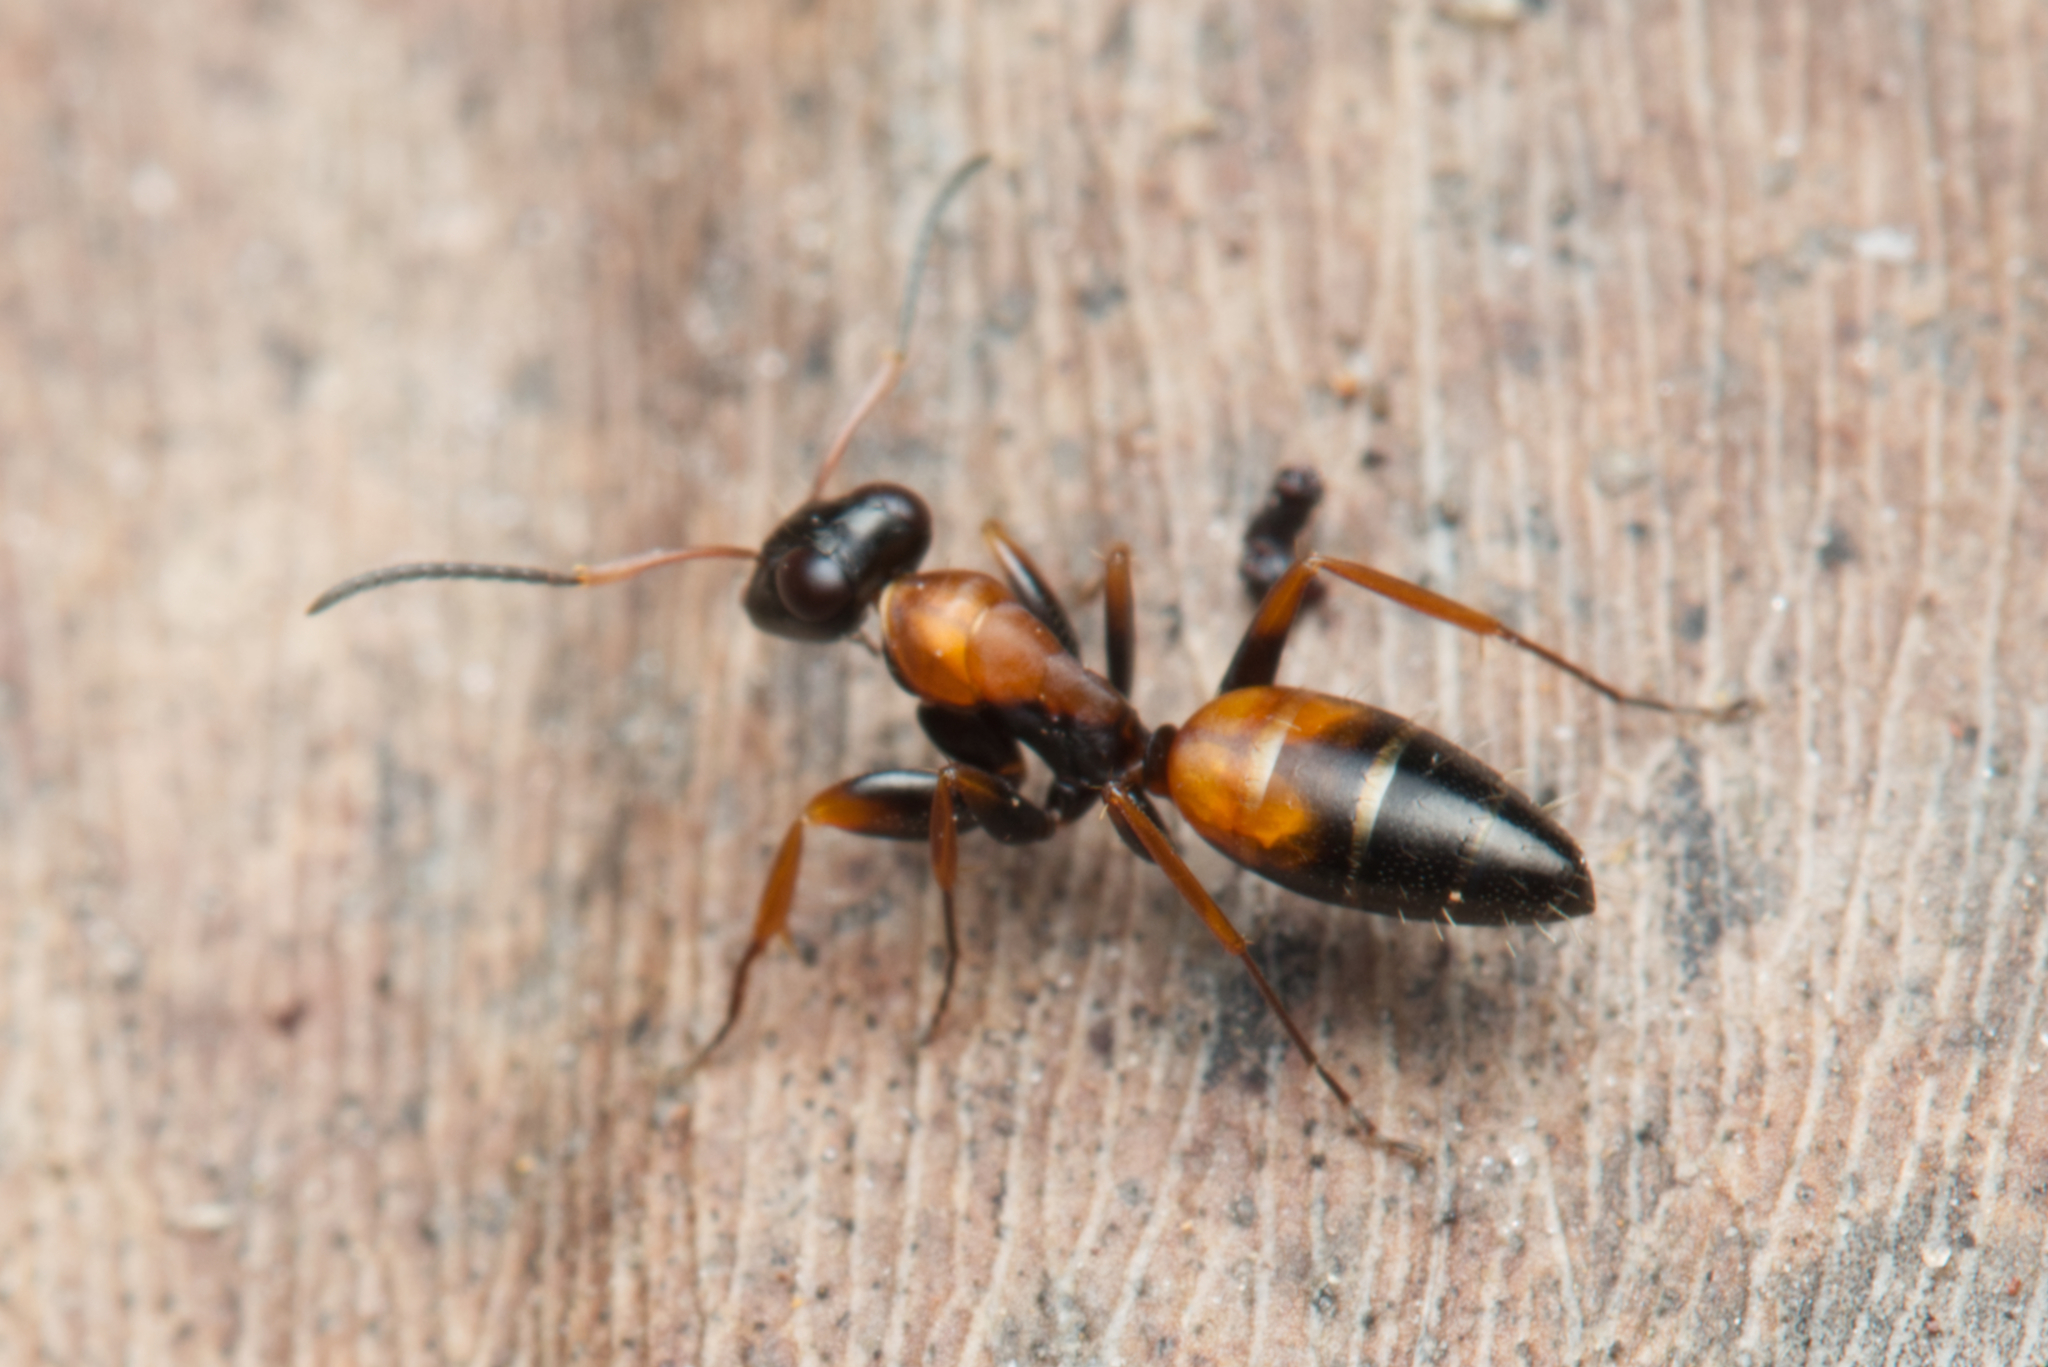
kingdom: Animalia
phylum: Arthropoda
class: Insecta
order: Hymenoptera
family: Formicidae
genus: Opisthopsis
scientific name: Opisthopsis pictus
